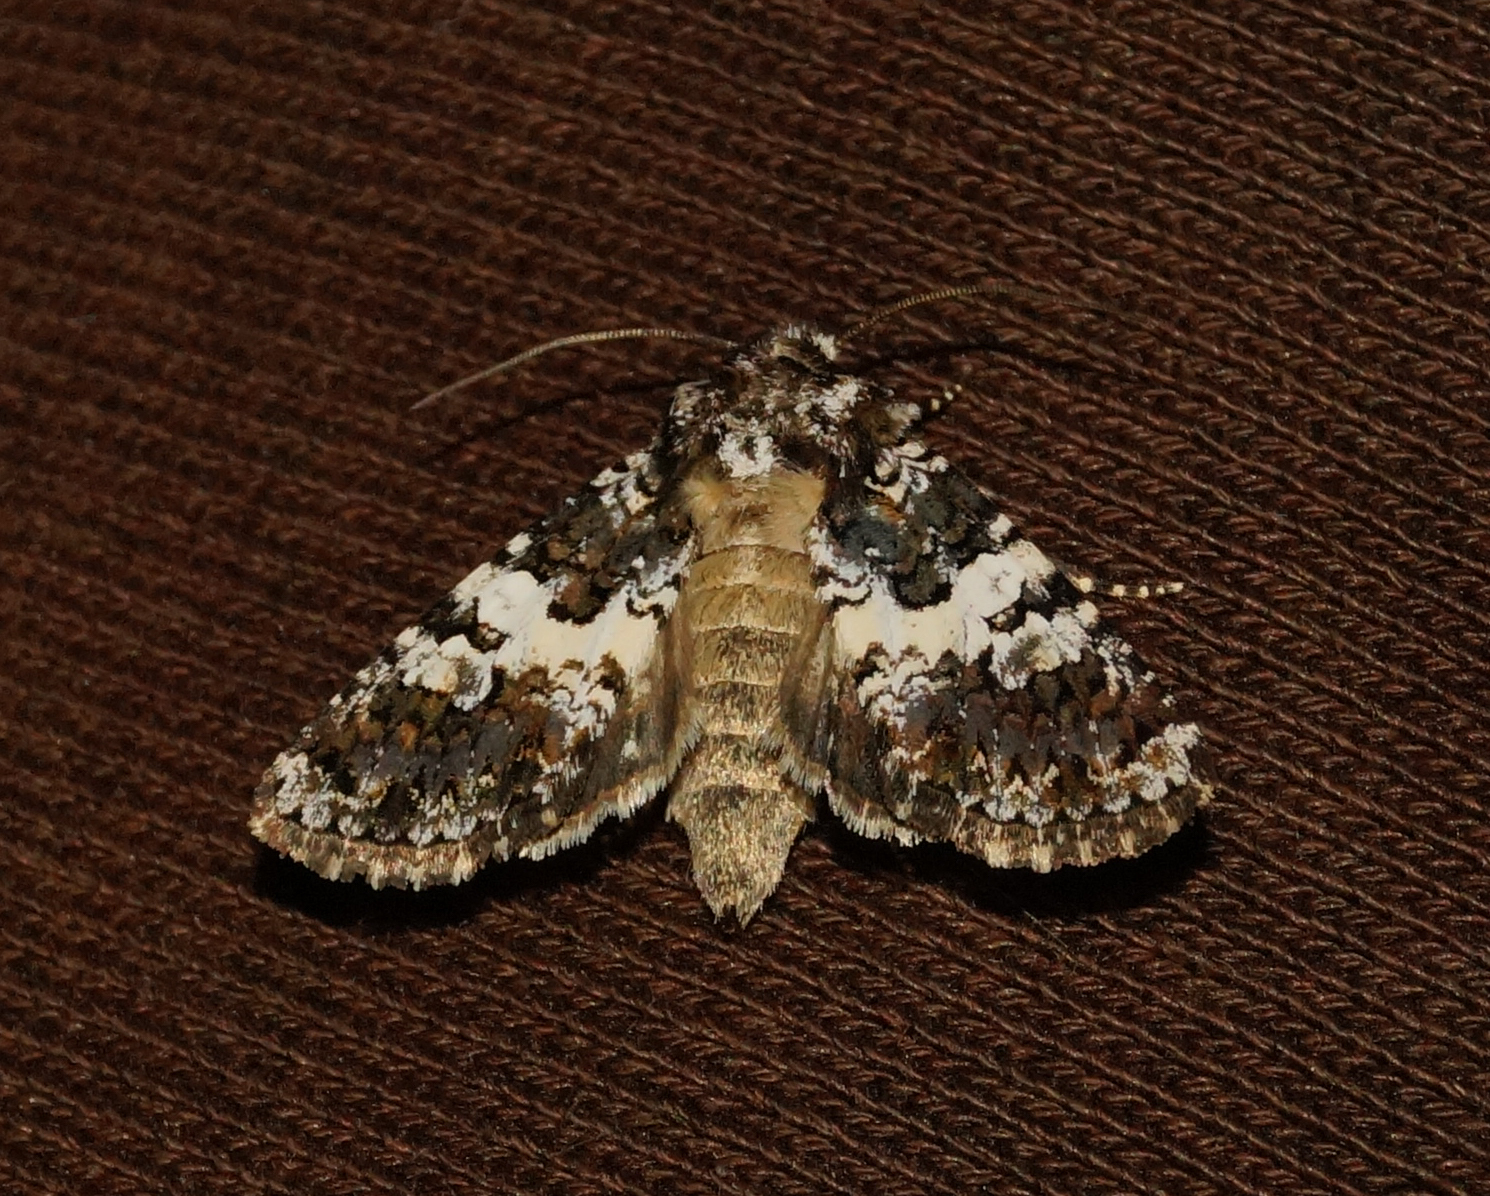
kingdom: Animalia
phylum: Arthropoda
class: Insecta
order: Lepidoptera
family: Noctuidae
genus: Hadena
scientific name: Hadena compta
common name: Varied coronet
